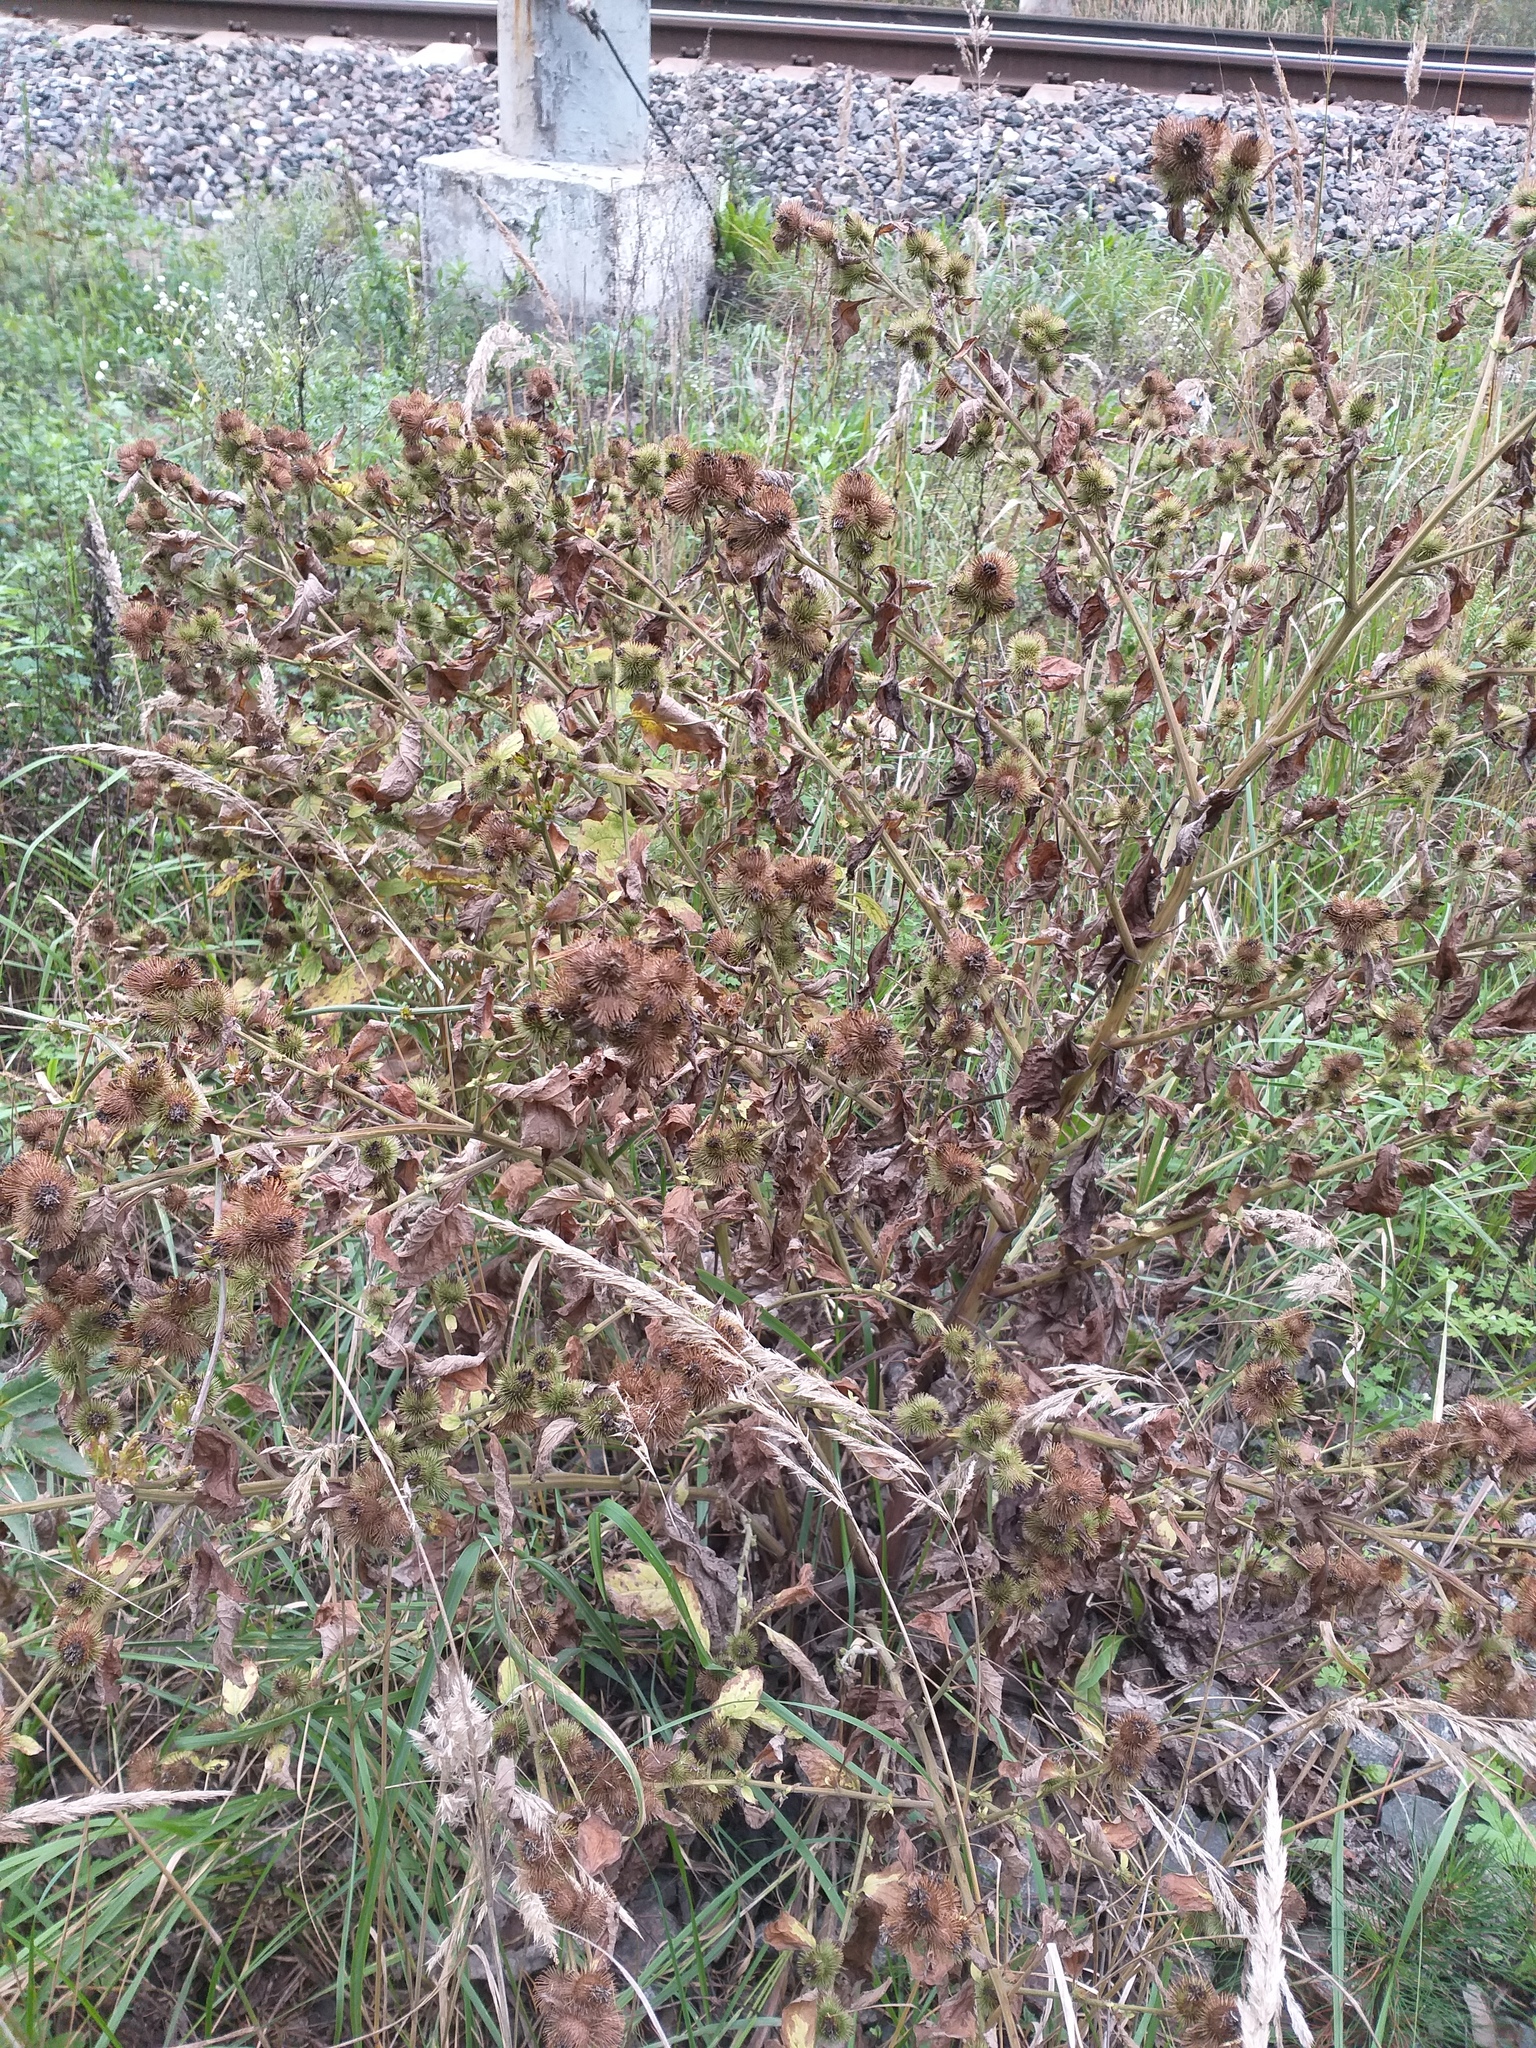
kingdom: Plantae
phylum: Tracheophyta
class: Magnoliopsida
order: Asterales
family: Asteraceae
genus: Arctium
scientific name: Arctium minus
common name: Lesser burdock
